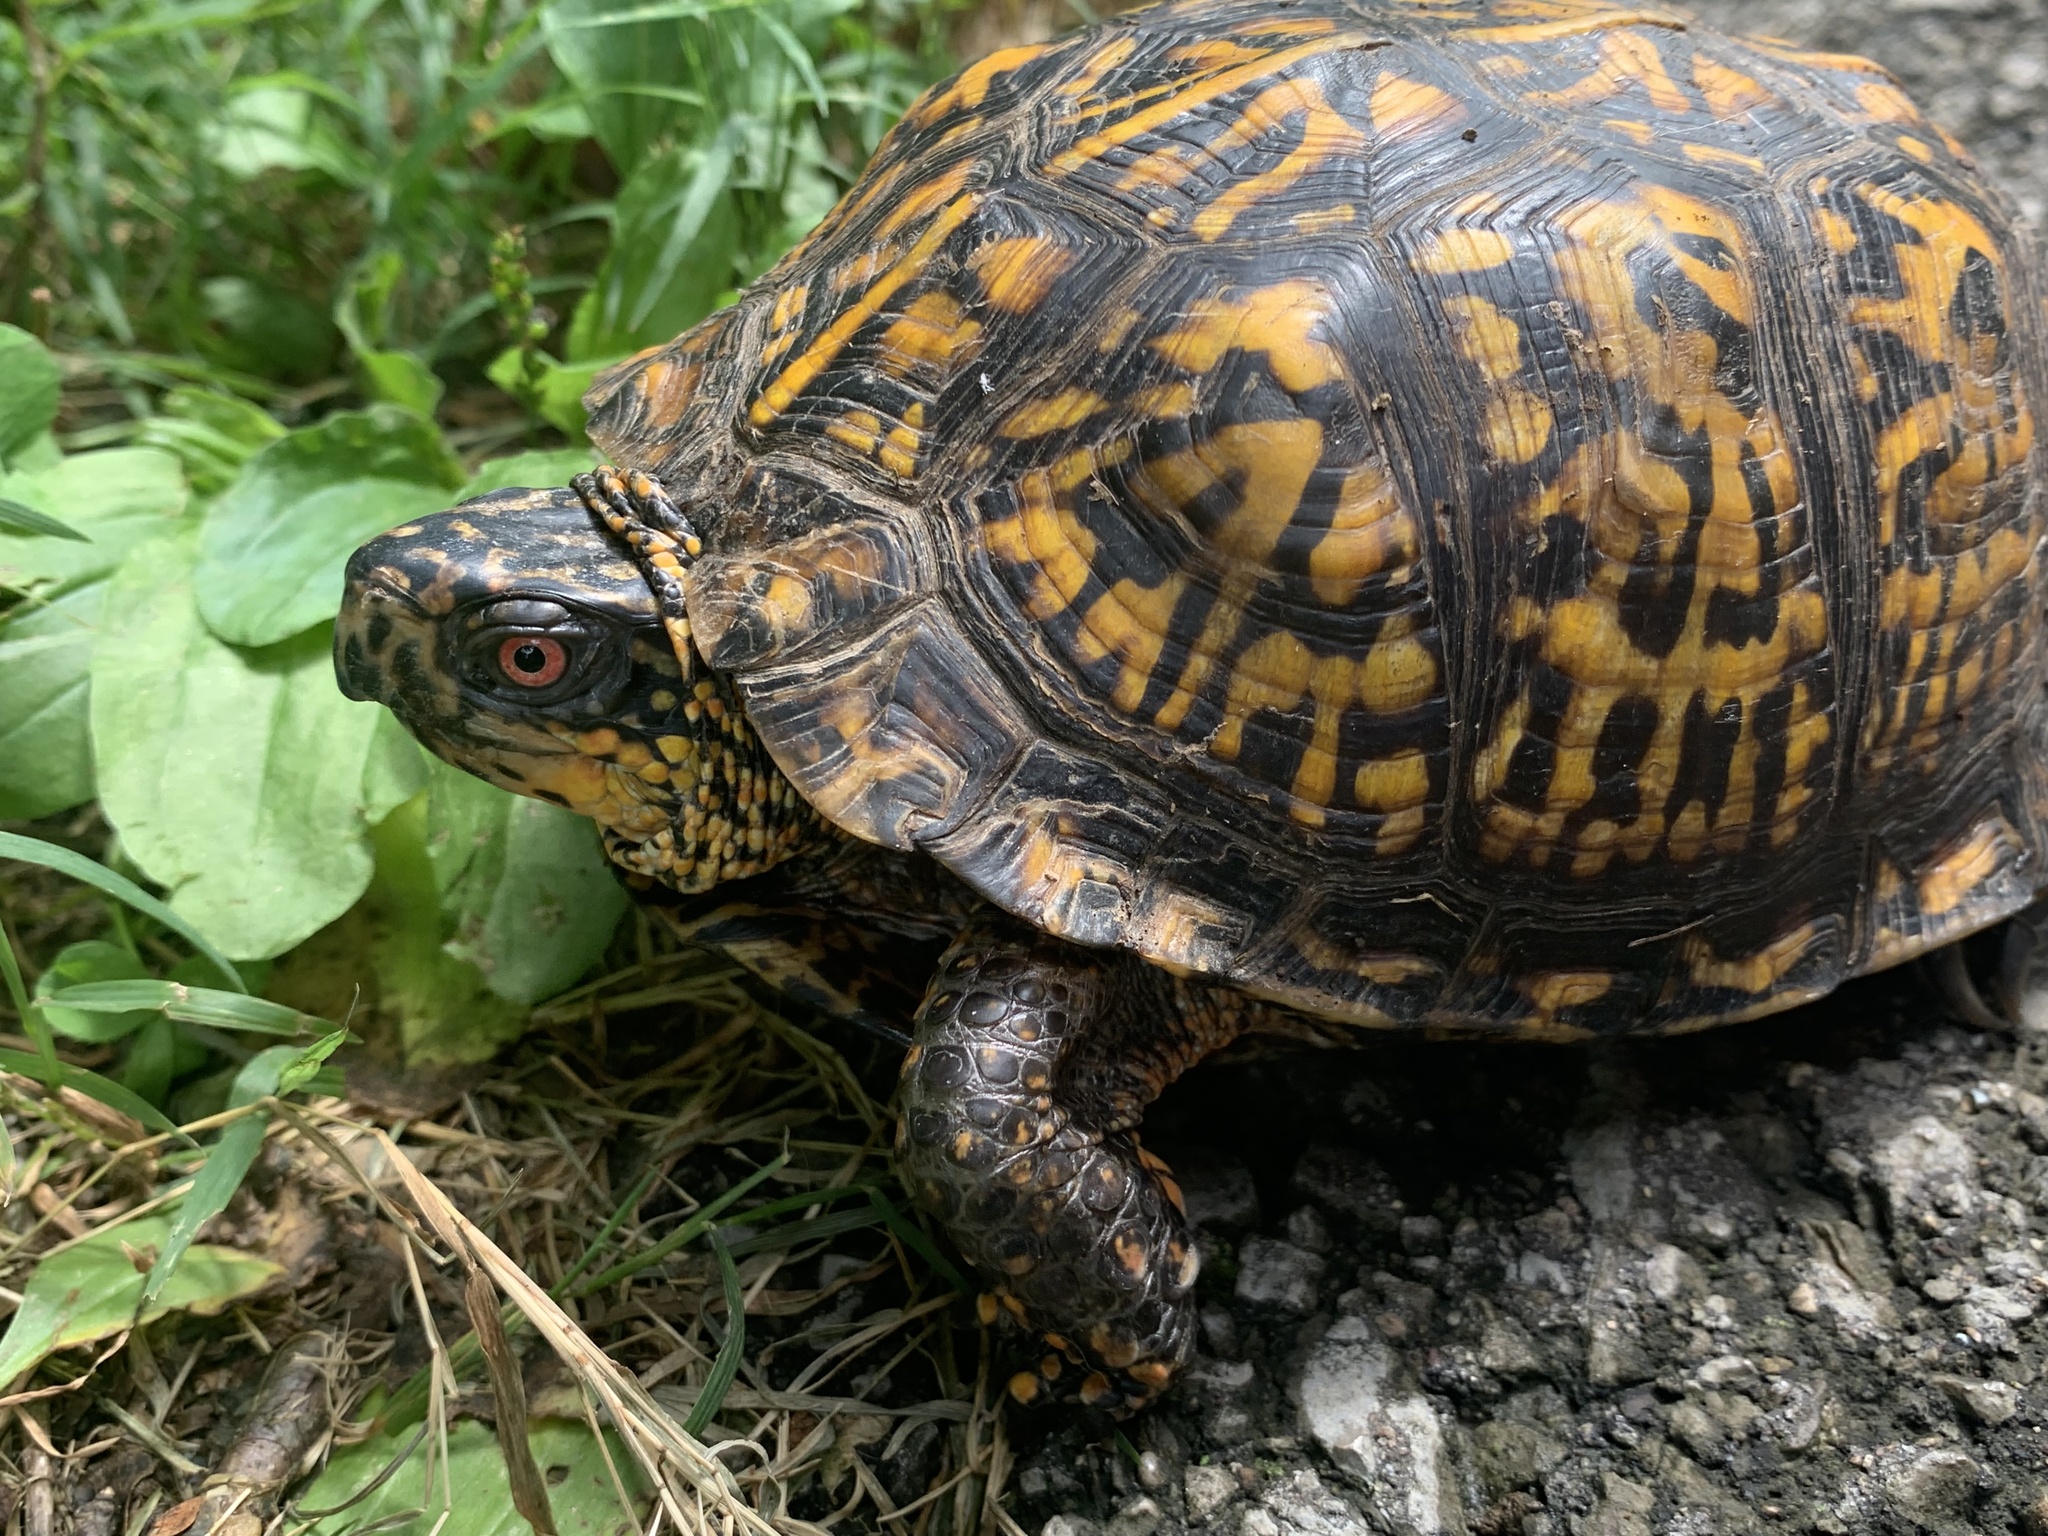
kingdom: Animalia
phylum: Chordata
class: Testudines
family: Emydidae
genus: Terrapene
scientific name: Terrapene carolina
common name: Common box turtle
